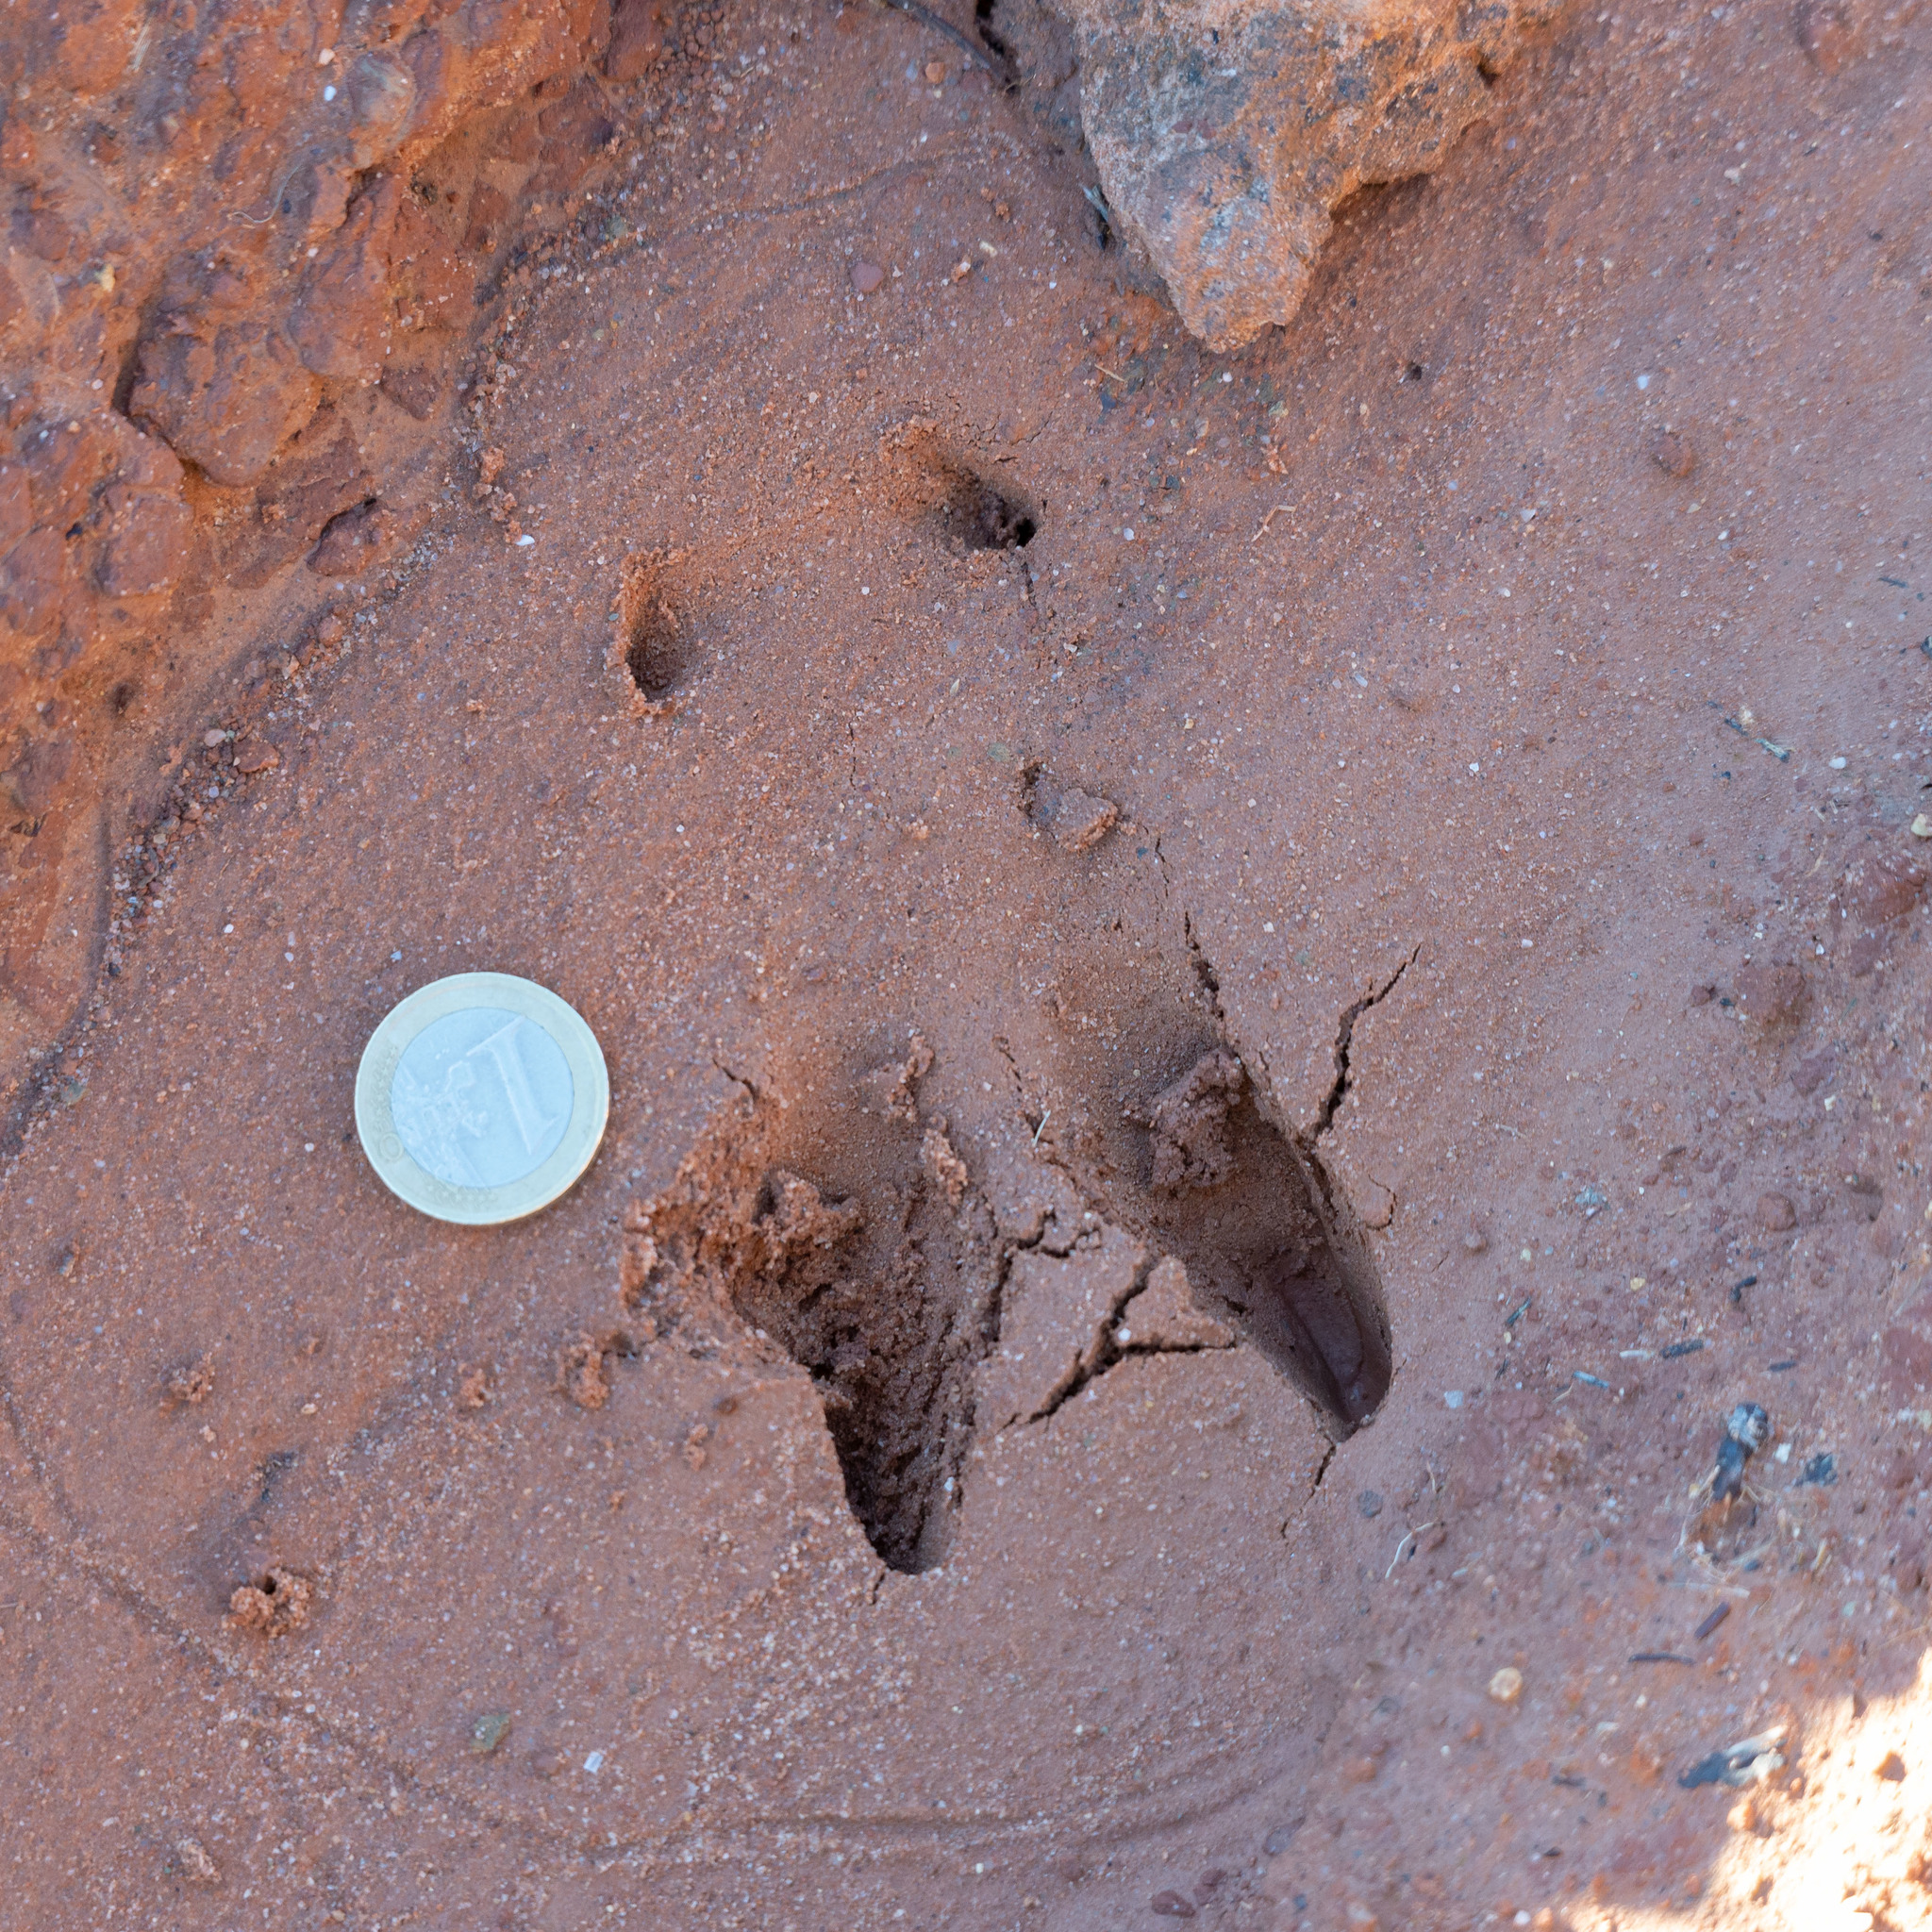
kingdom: Animalia
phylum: Chordata
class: Mammalia
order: Artiodactyla
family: Cervidae
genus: Capreolus
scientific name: Capreolus capreolus
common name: Western roe deer
